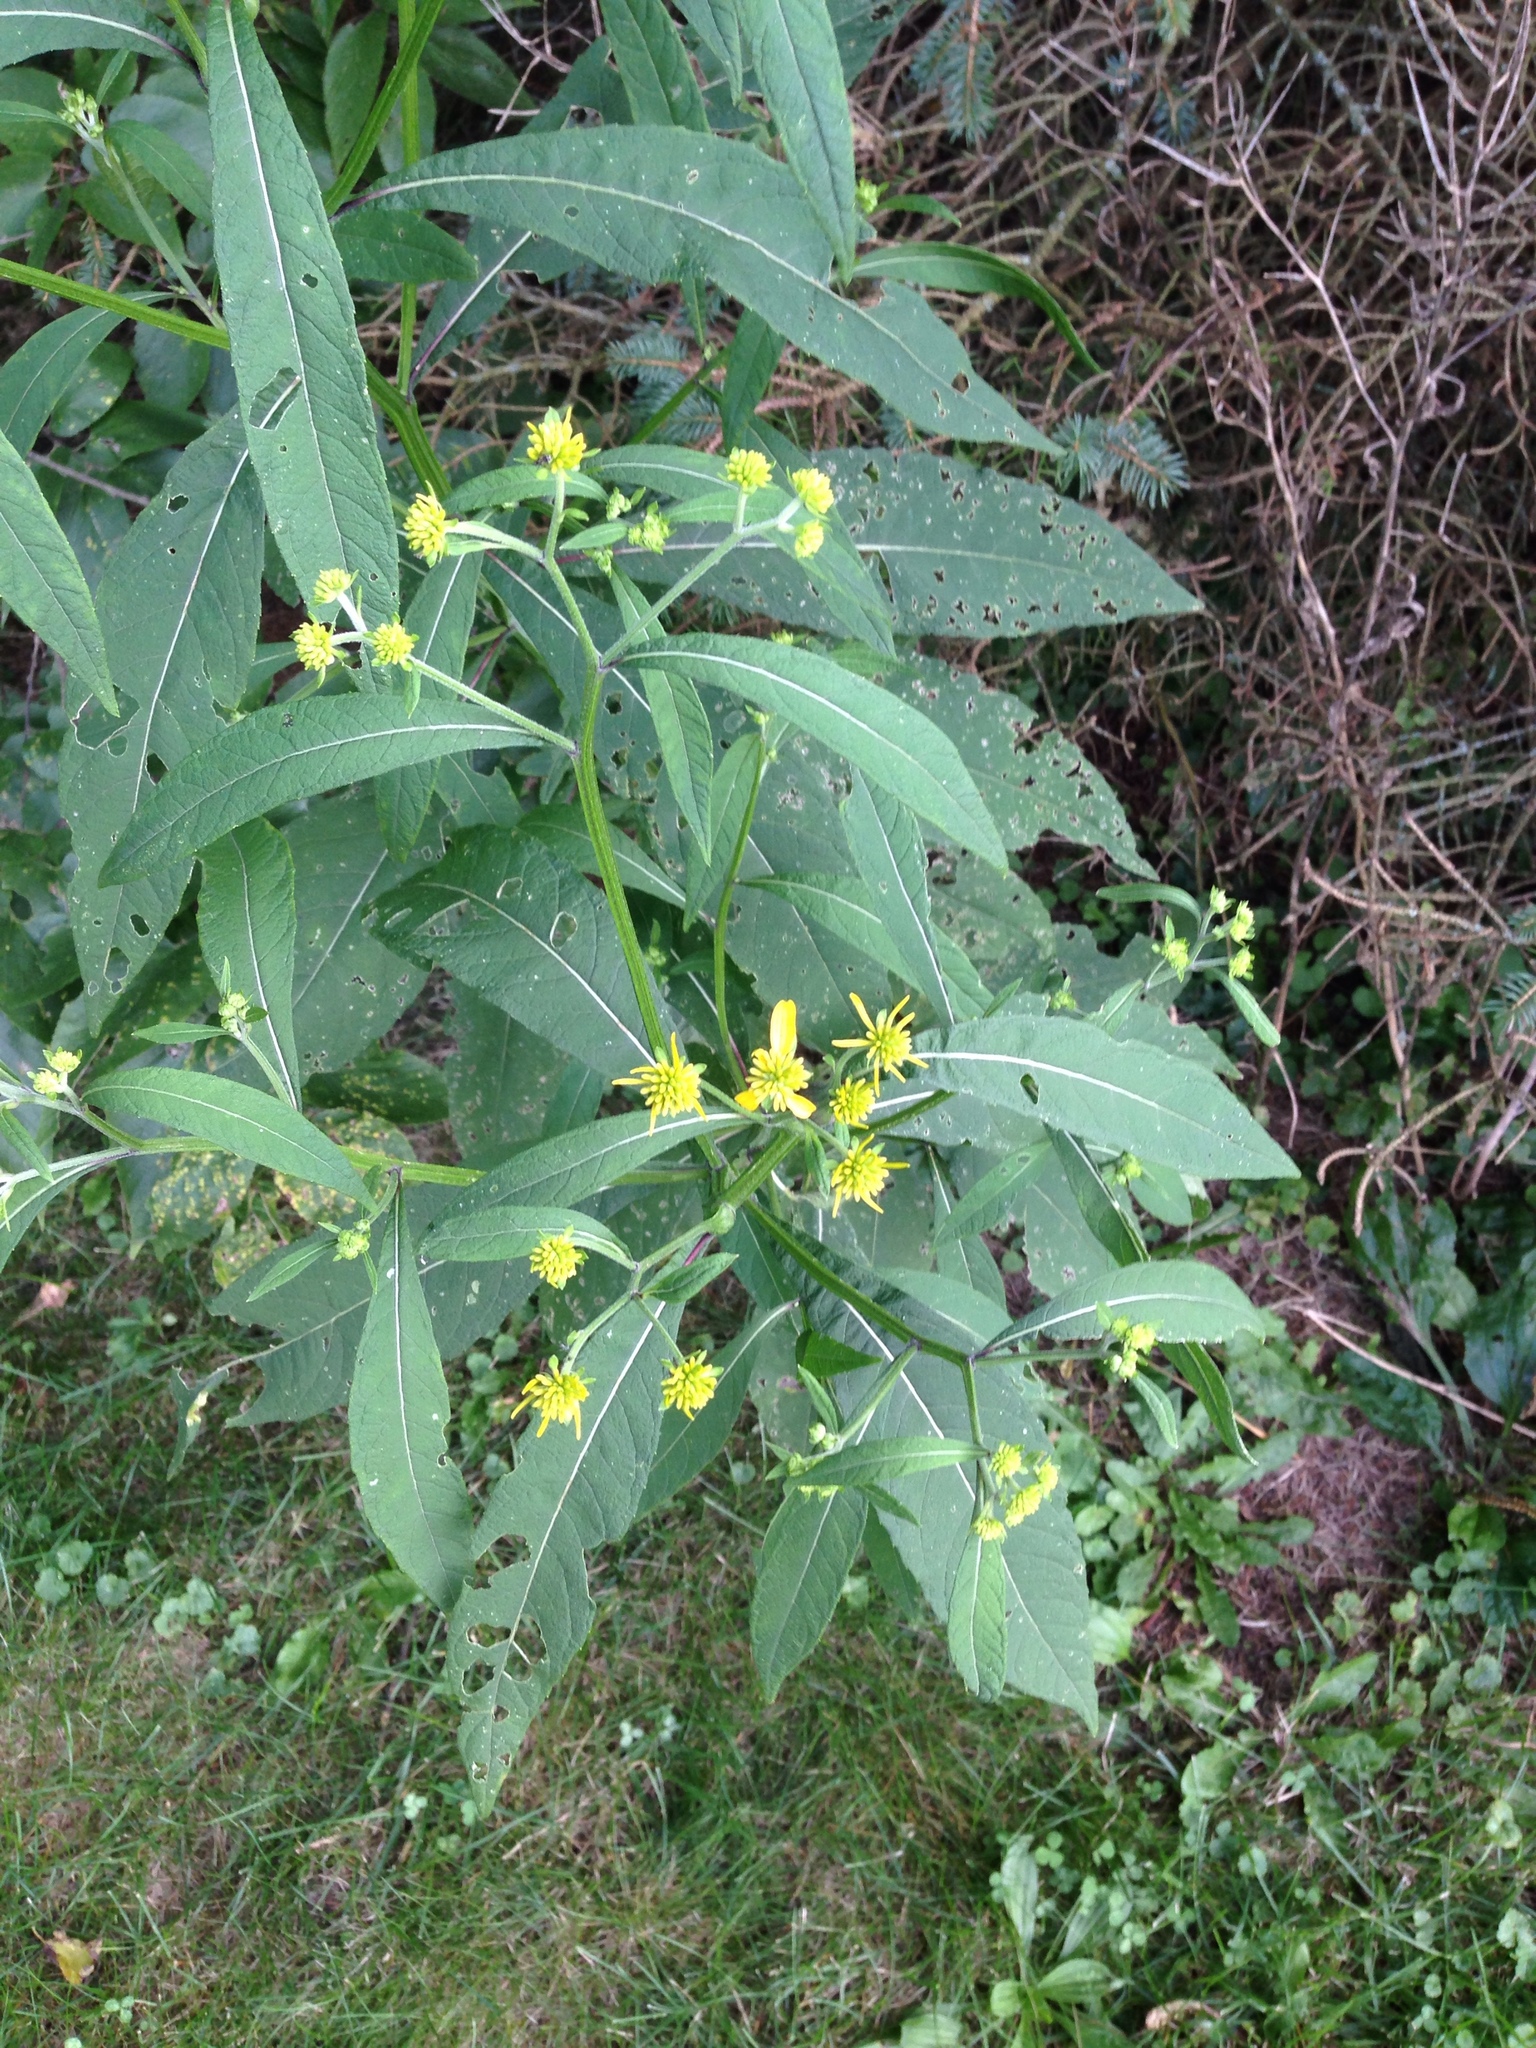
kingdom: Plantae
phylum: Tracheophyta
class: Magnoliopsida
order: Asterales
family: Asteraceae
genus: Verbesina
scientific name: Verbesina alternifolia
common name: Wingstem
